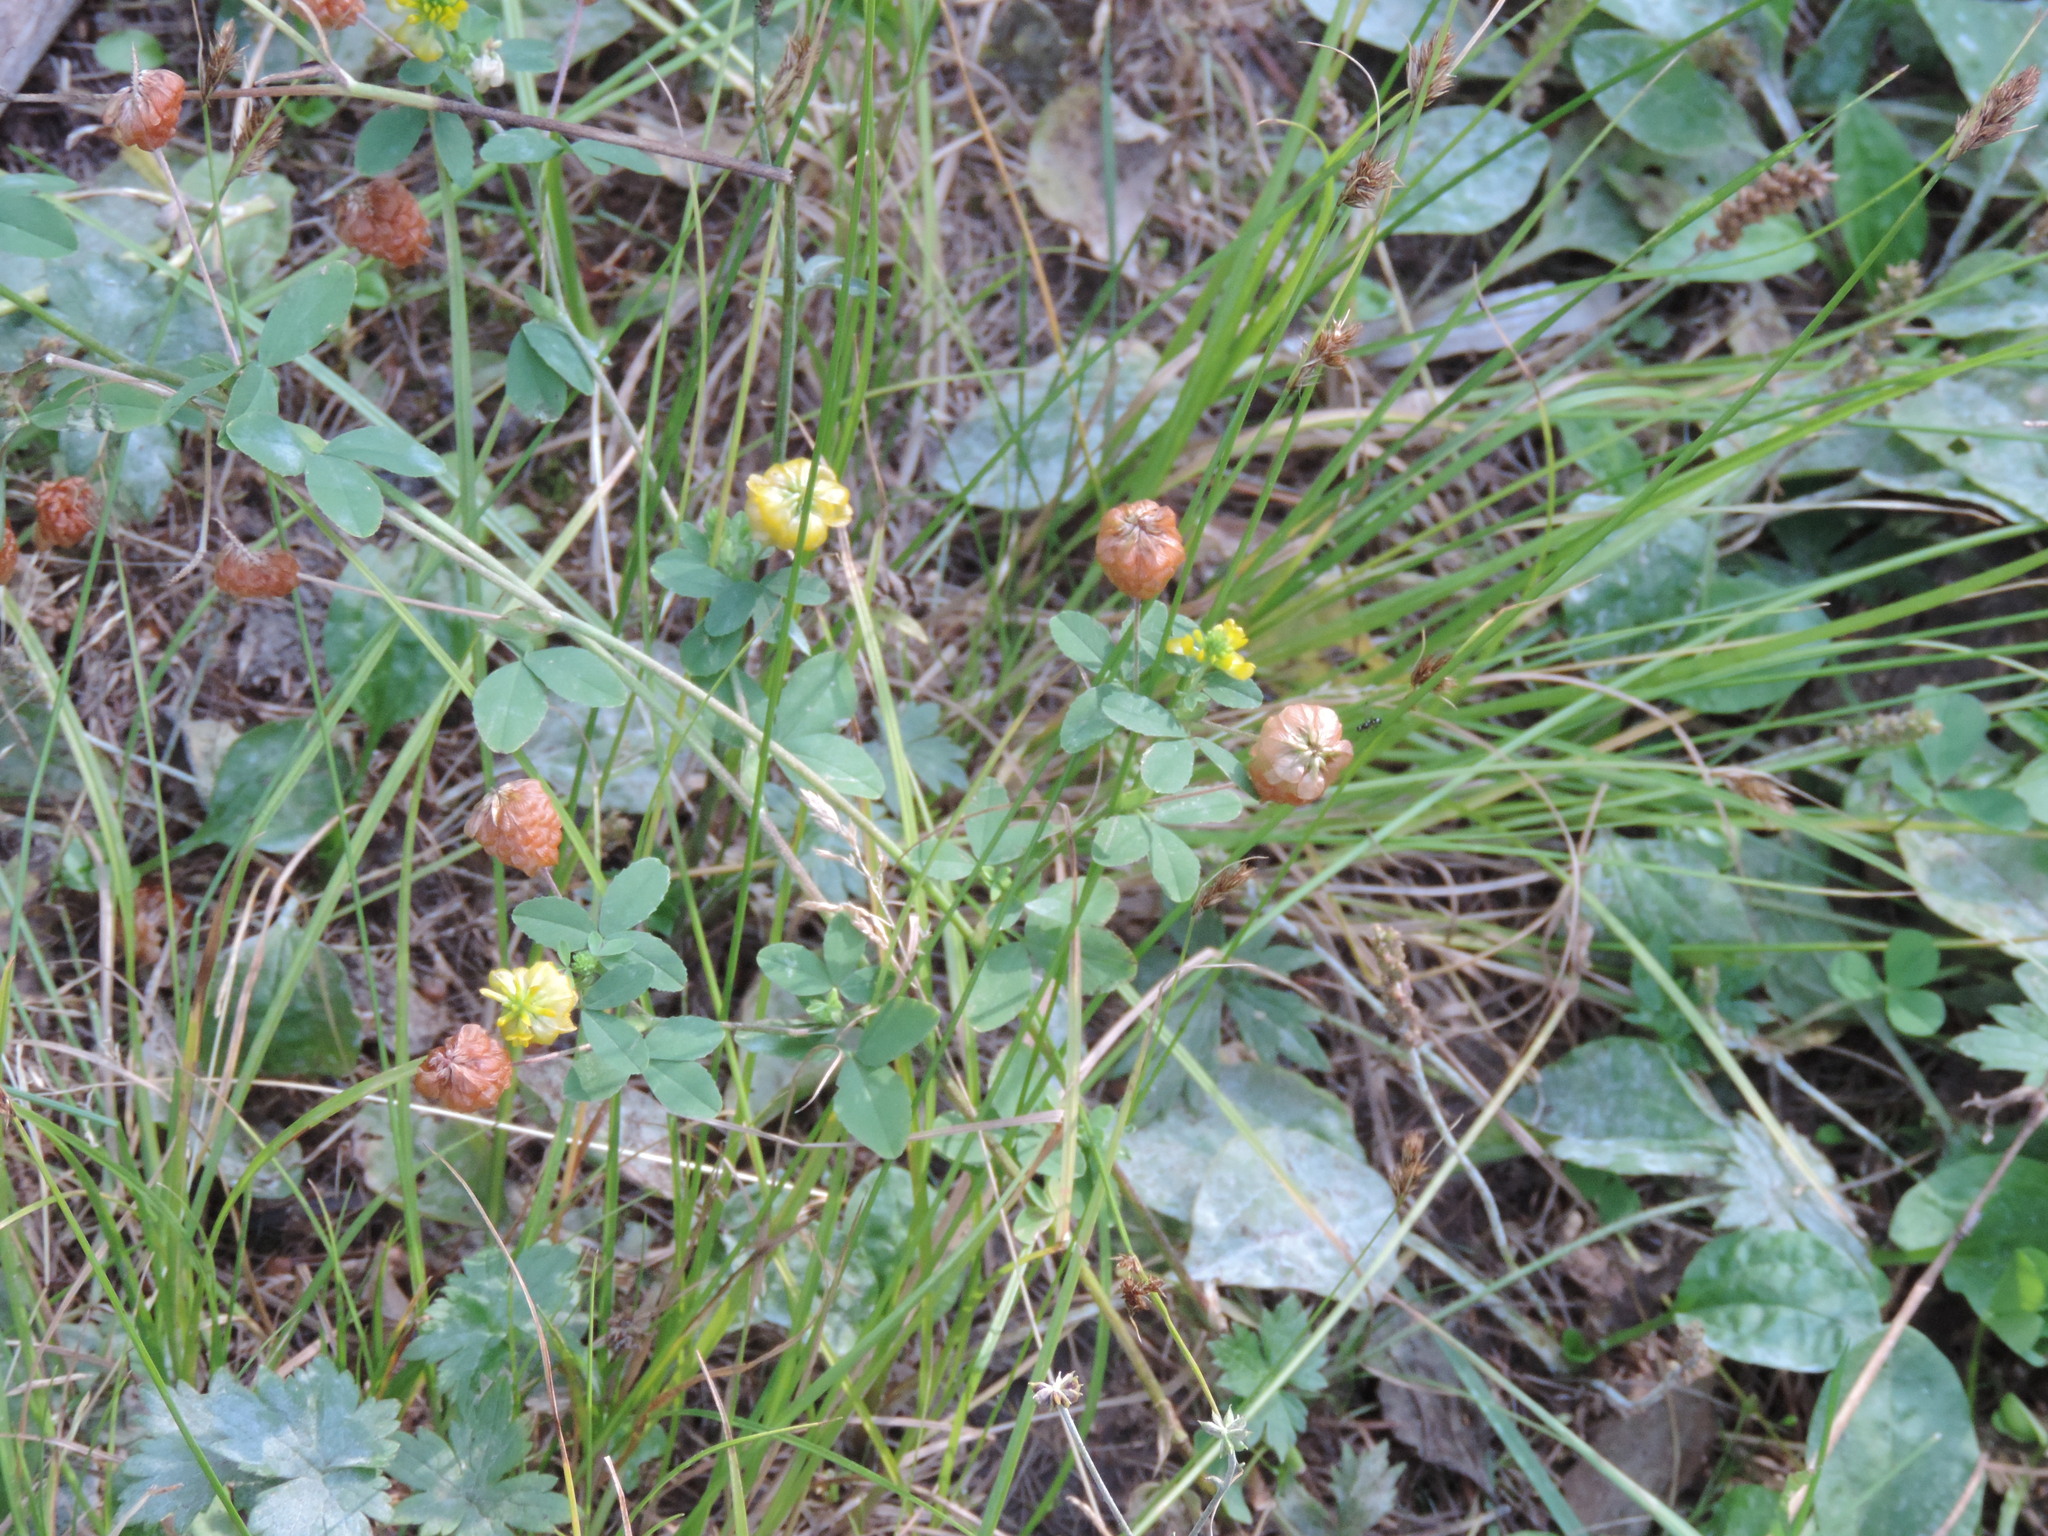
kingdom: Plantae
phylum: Tracheophyta
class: Magnoliopsida
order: Fabales
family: Fabaceae
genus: Trifolium
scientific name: Trifolium aureum
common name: Golden clover
